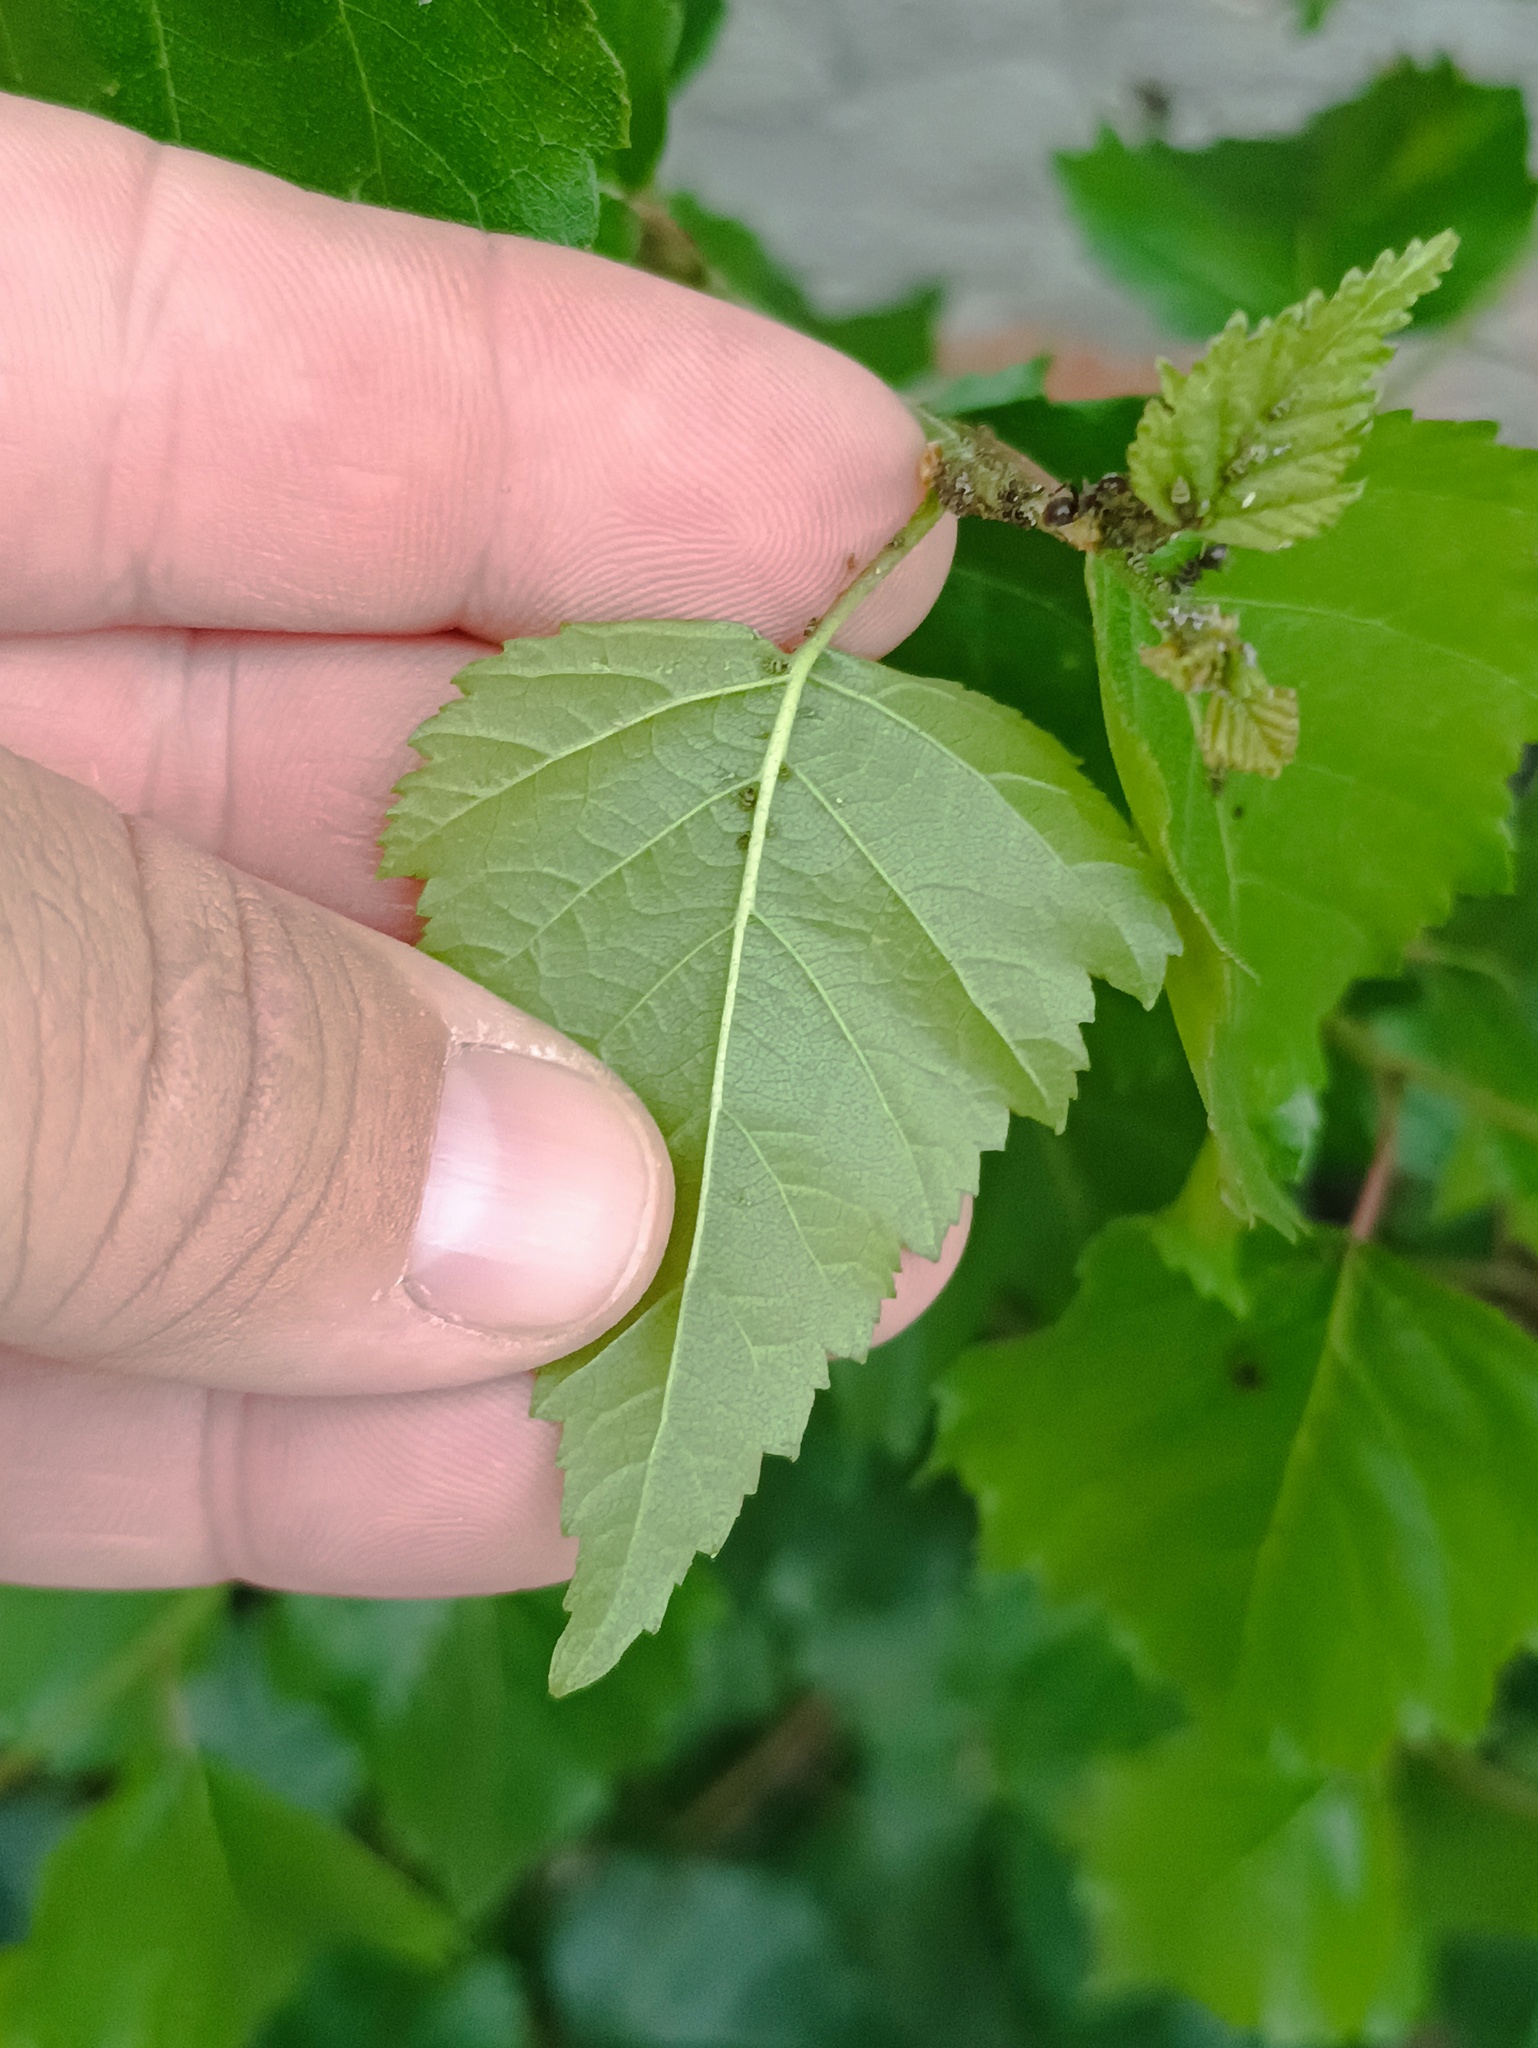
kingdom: Plantae
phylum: Tracheophyta
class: Magnoliopsida
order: Fagales
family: Betulaceae
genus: Betula
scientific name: Betula pendula
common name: Silver birch
